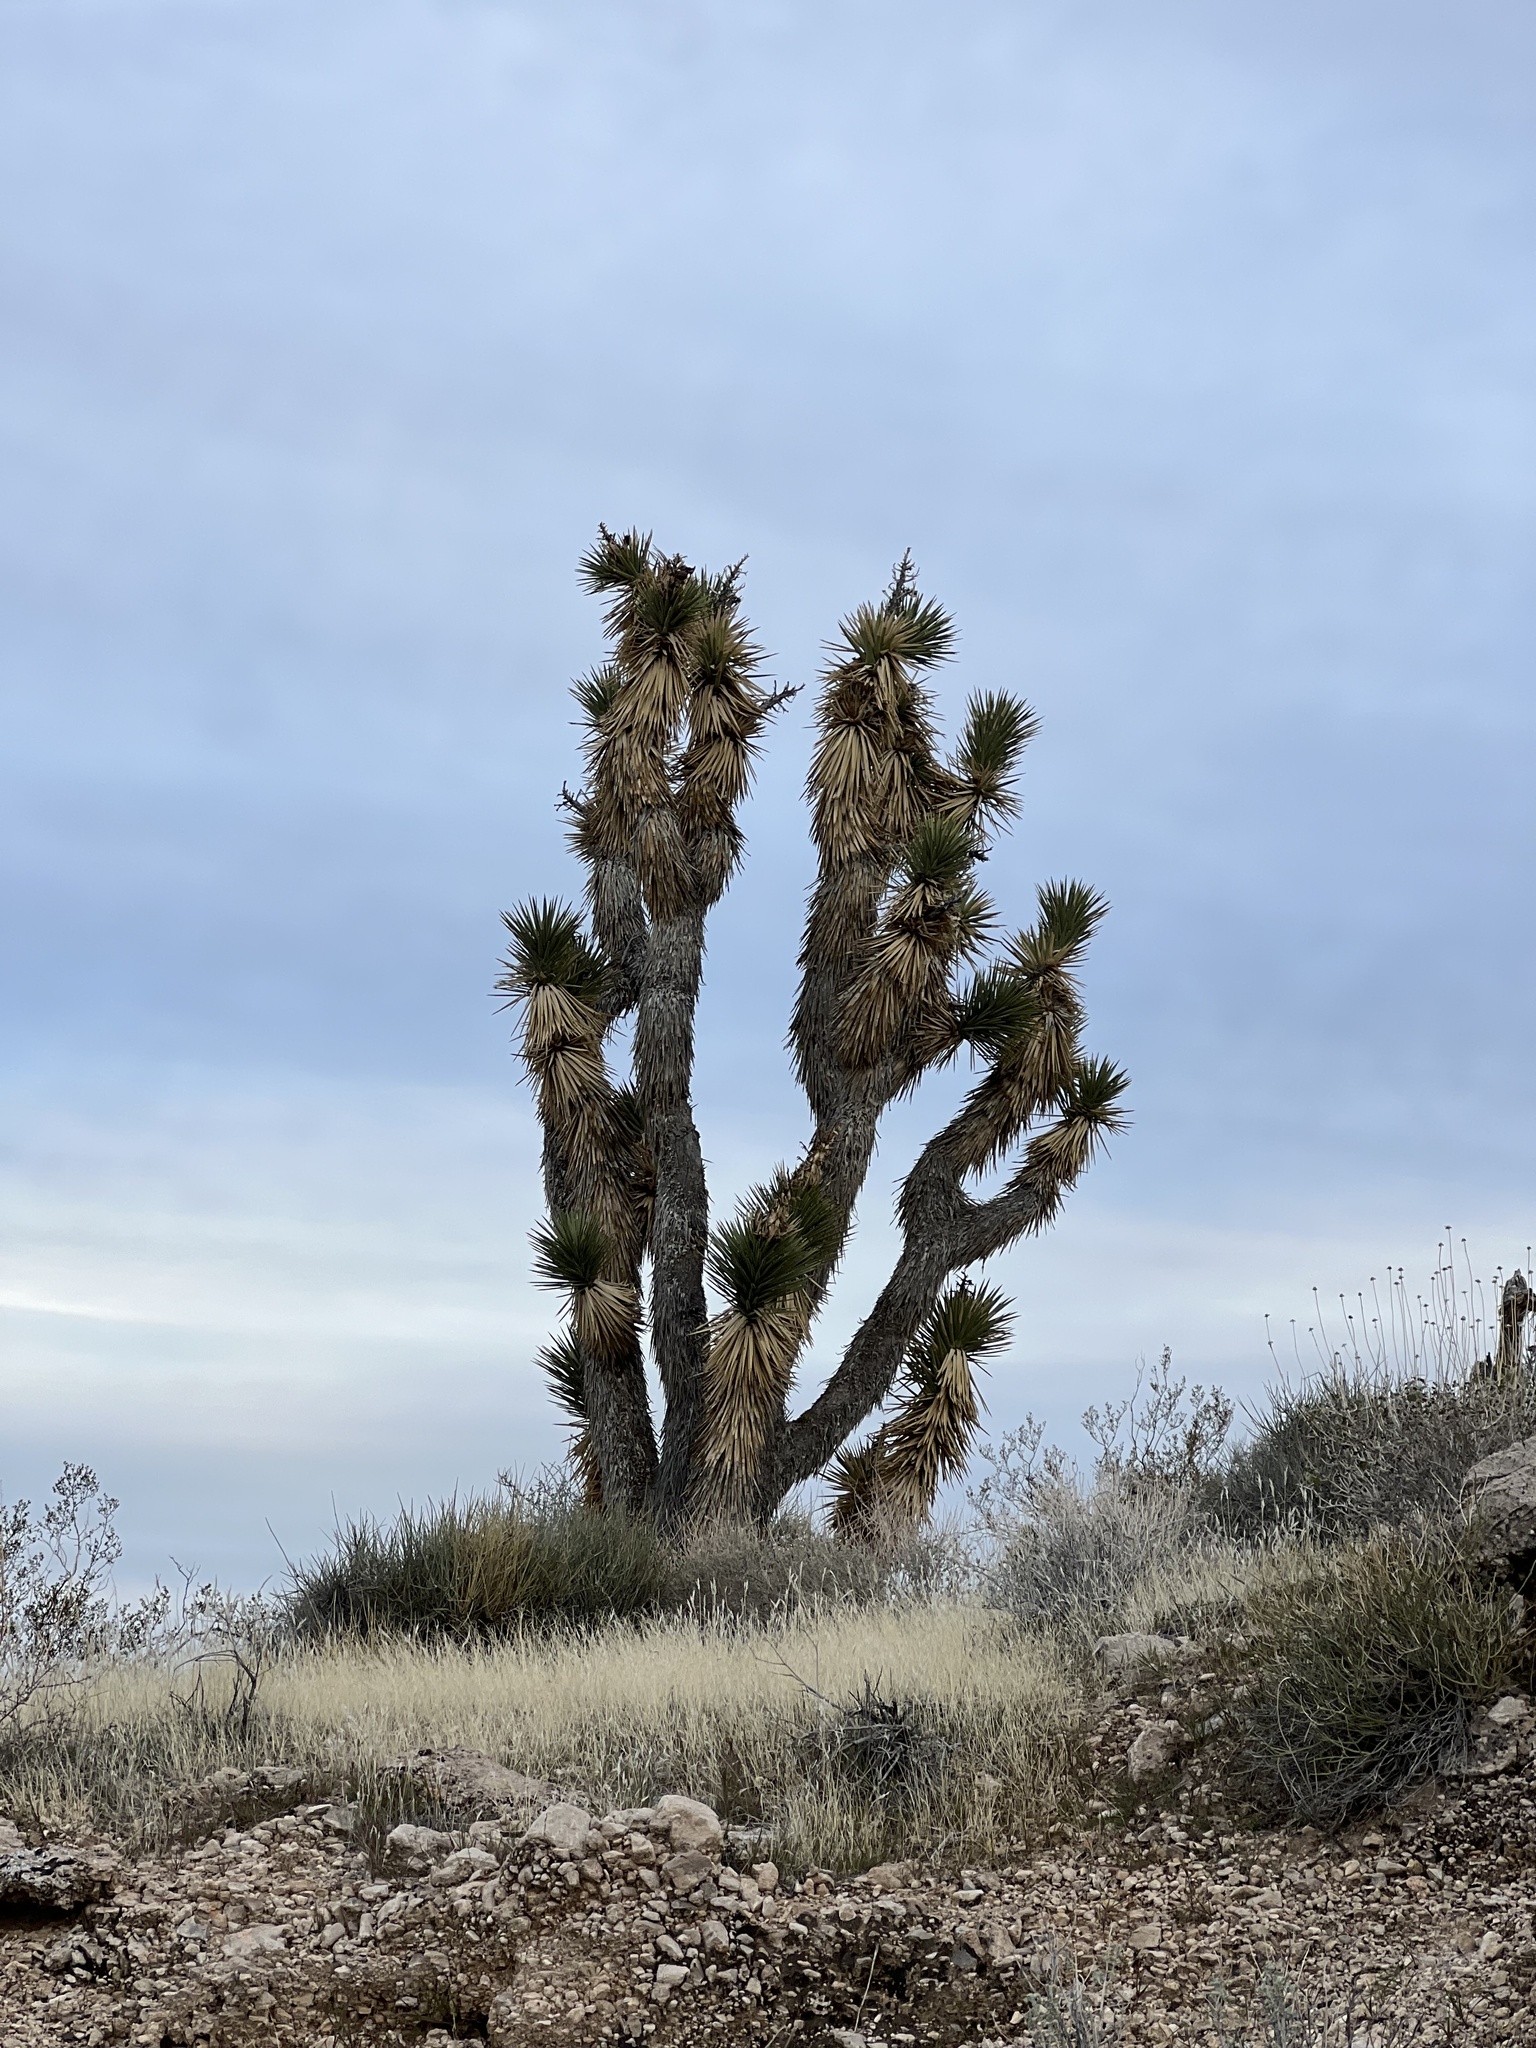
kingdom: Plantae
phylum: Tracheophyta
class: Liliopsida
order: Asparagales
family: Asparagaceae
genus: Yucca
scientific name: Yucca brevifolia
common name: Joshua tree
